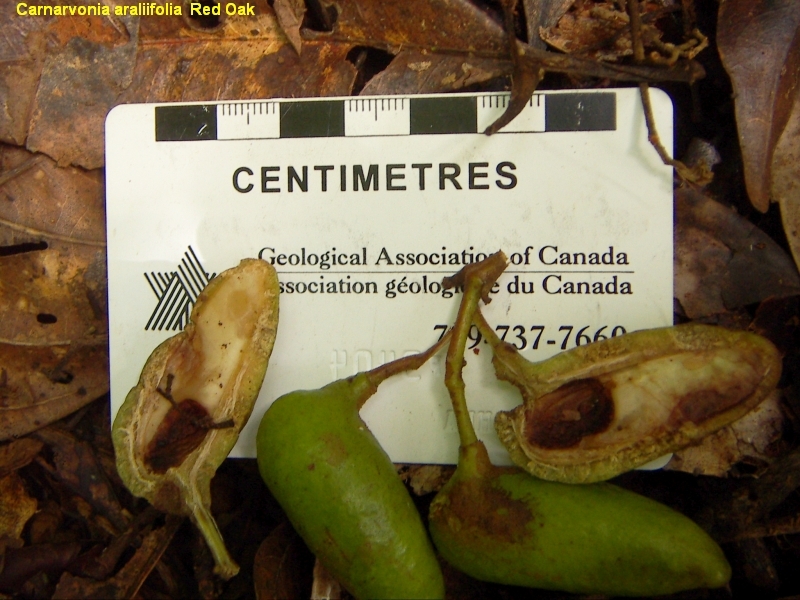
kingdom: Plantae
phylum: Tracheophyta
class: Magnoliopsida
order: Proteales
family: Proteaceae
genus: Carnarvonia
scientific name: Carnarvonia araliifolia
